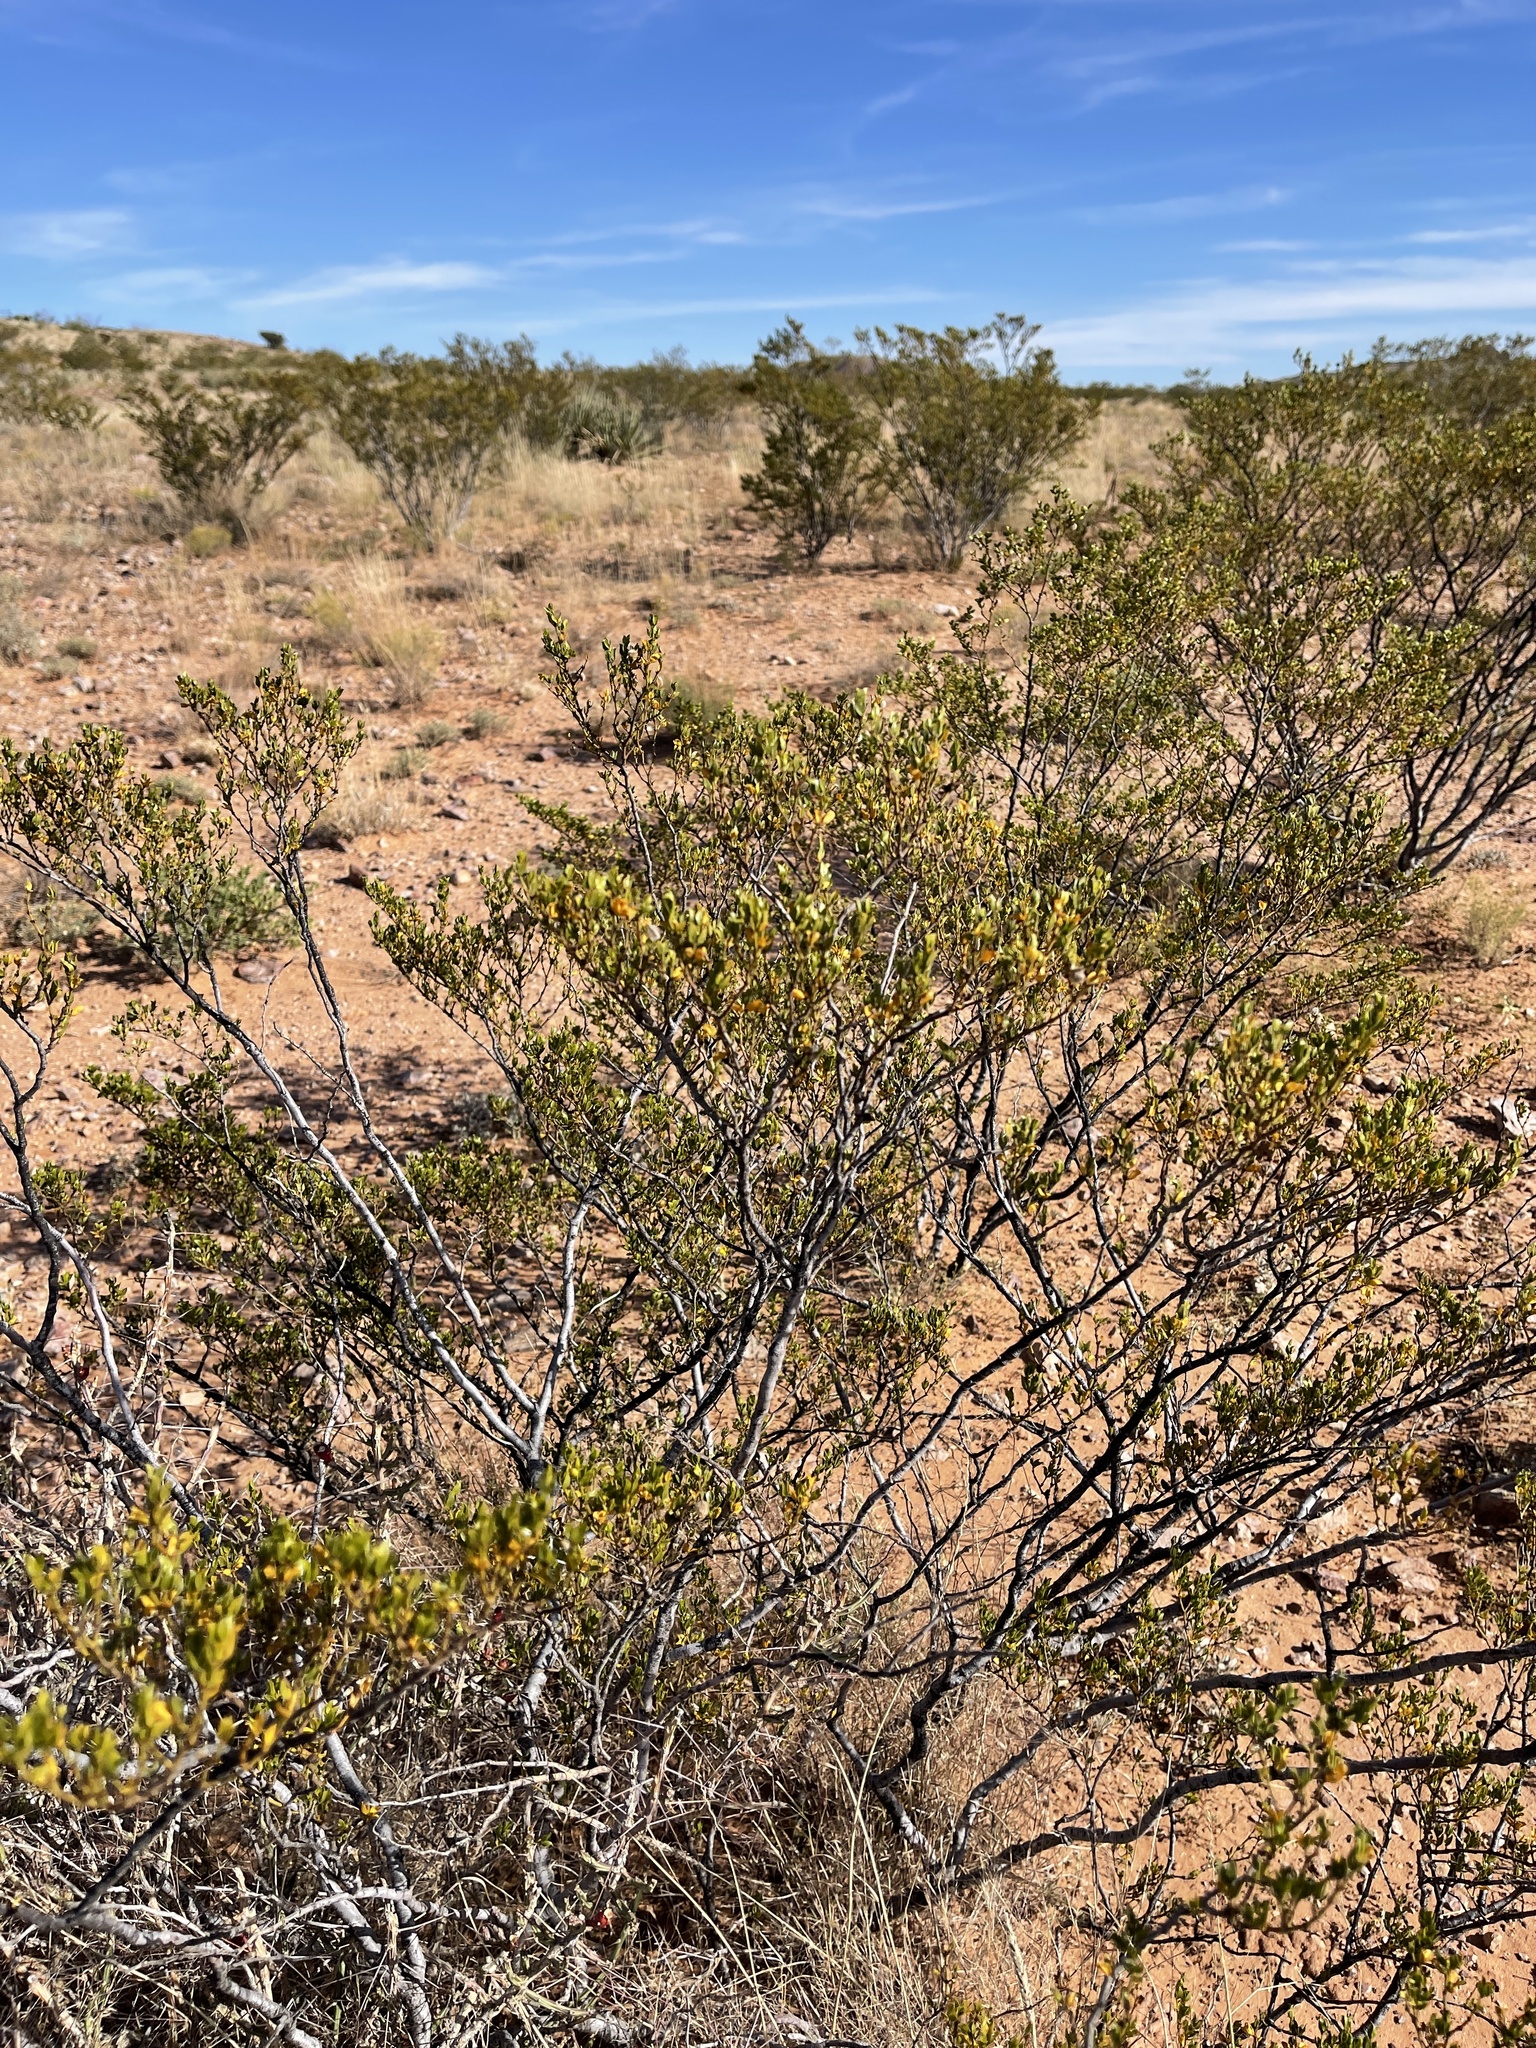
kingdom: Plantae
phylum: Tracheophyta
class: Magnoliopsida
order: Zygophyllales
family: Zygophyllaceae
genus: Larrea
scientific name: Larrea tridentata
